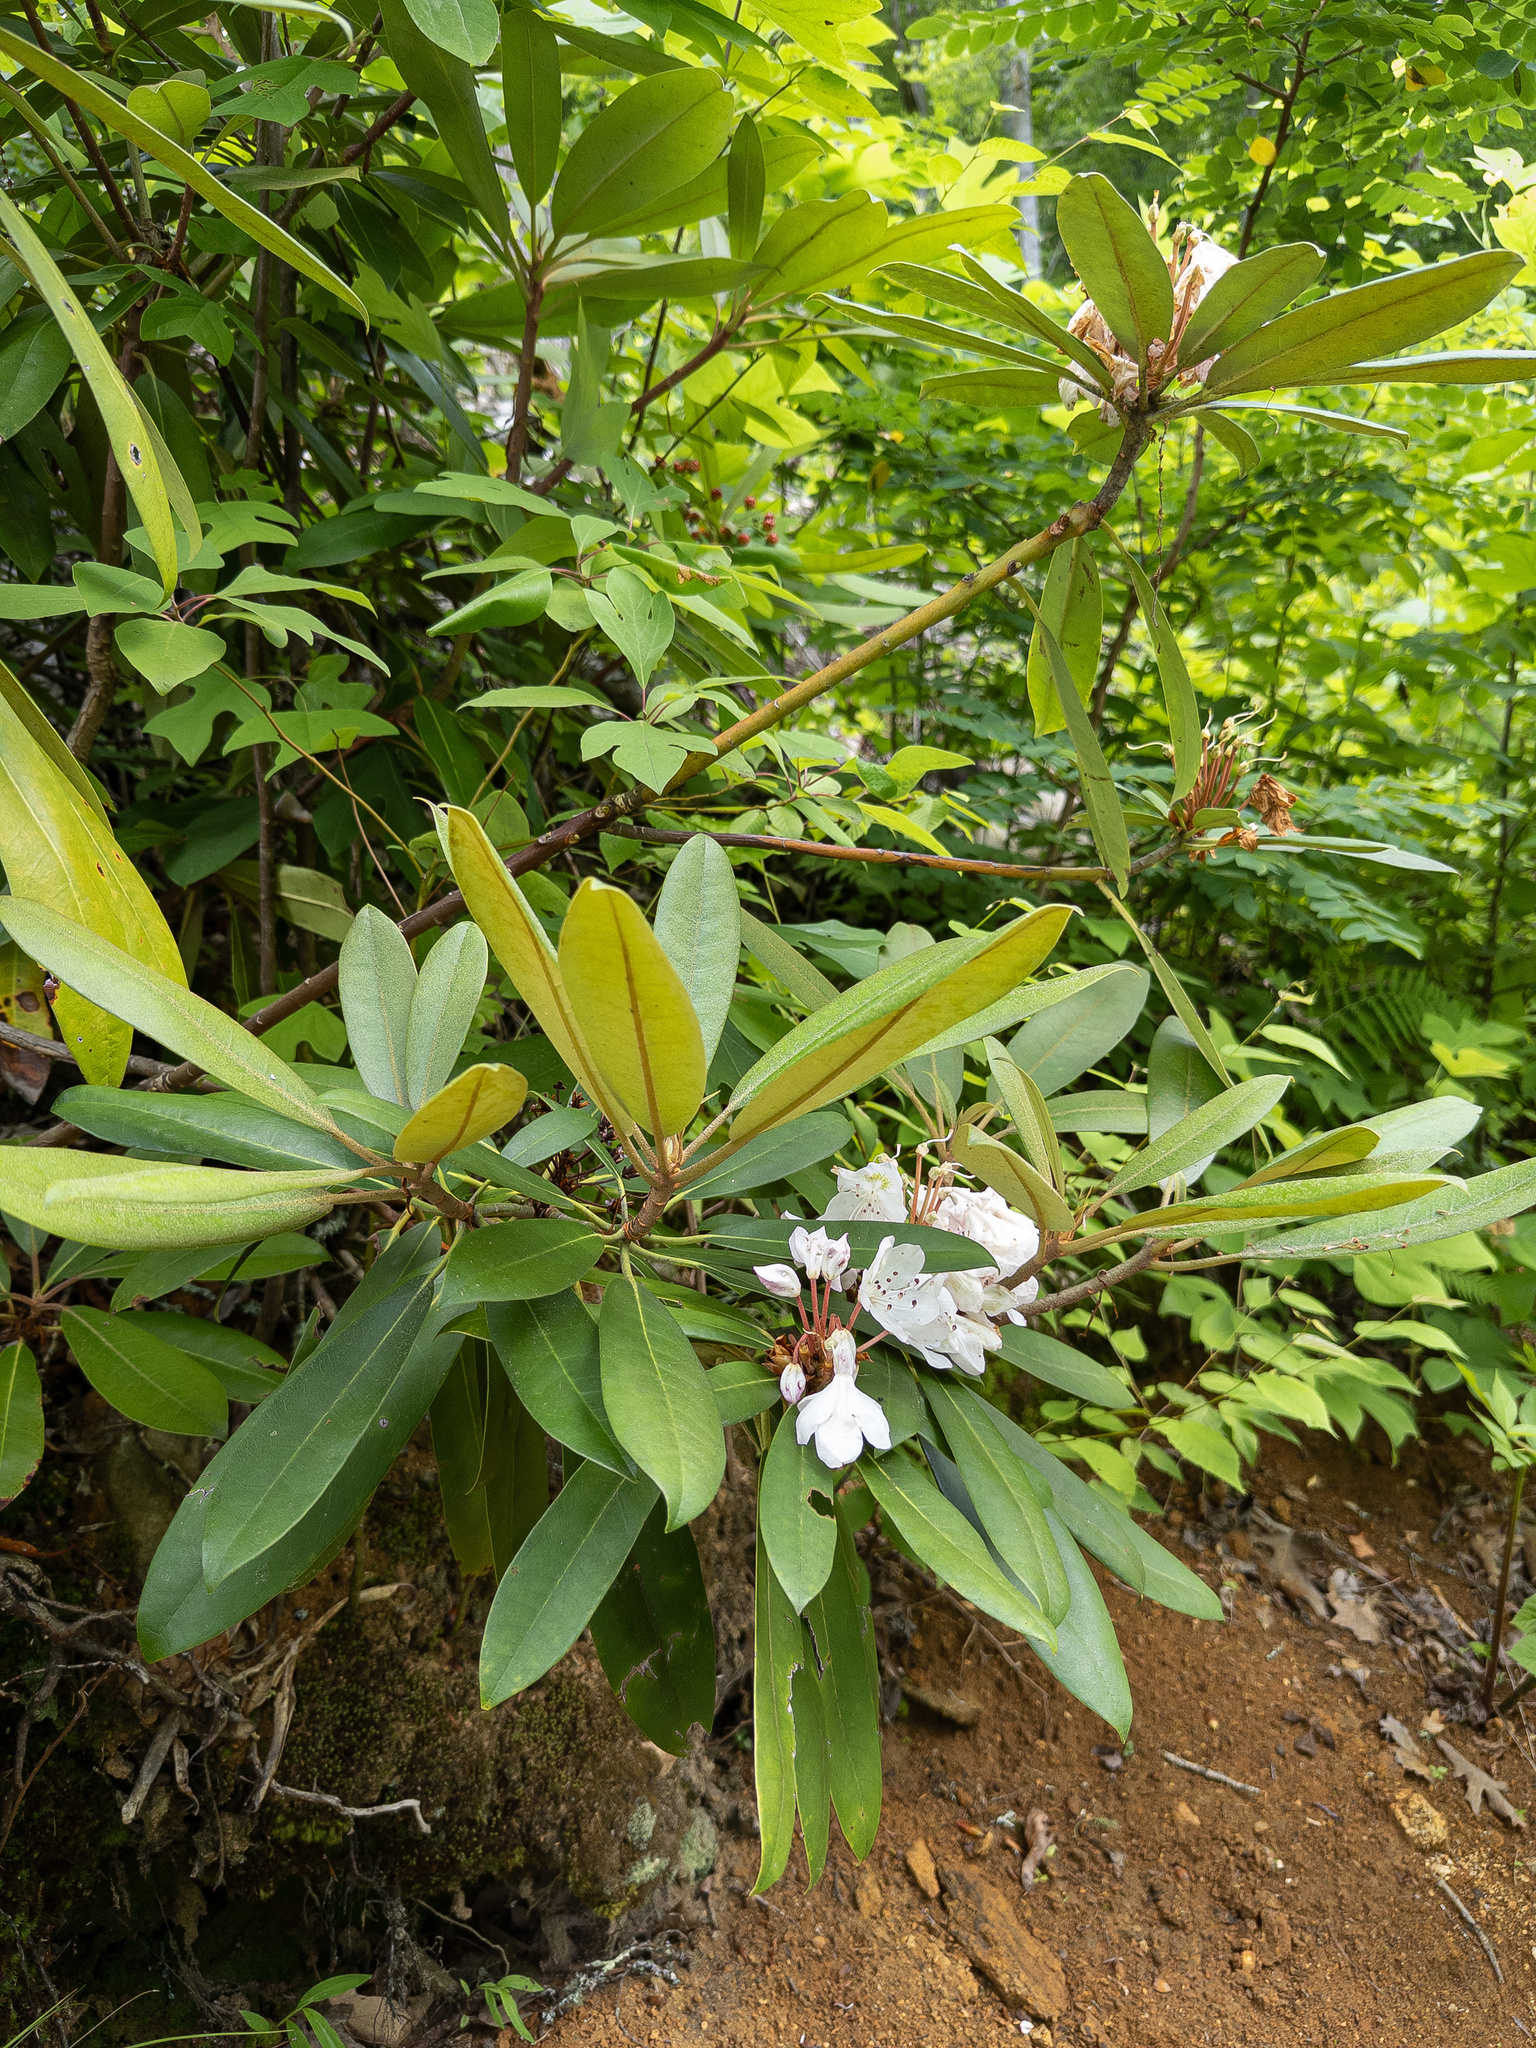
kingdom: Plantae
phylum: Tracheophyta
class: Magnoliopsida
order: Ericales
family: Ericaceae
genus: Rhododendron
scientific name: Rhododendron maximum
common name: Great rhododendron
